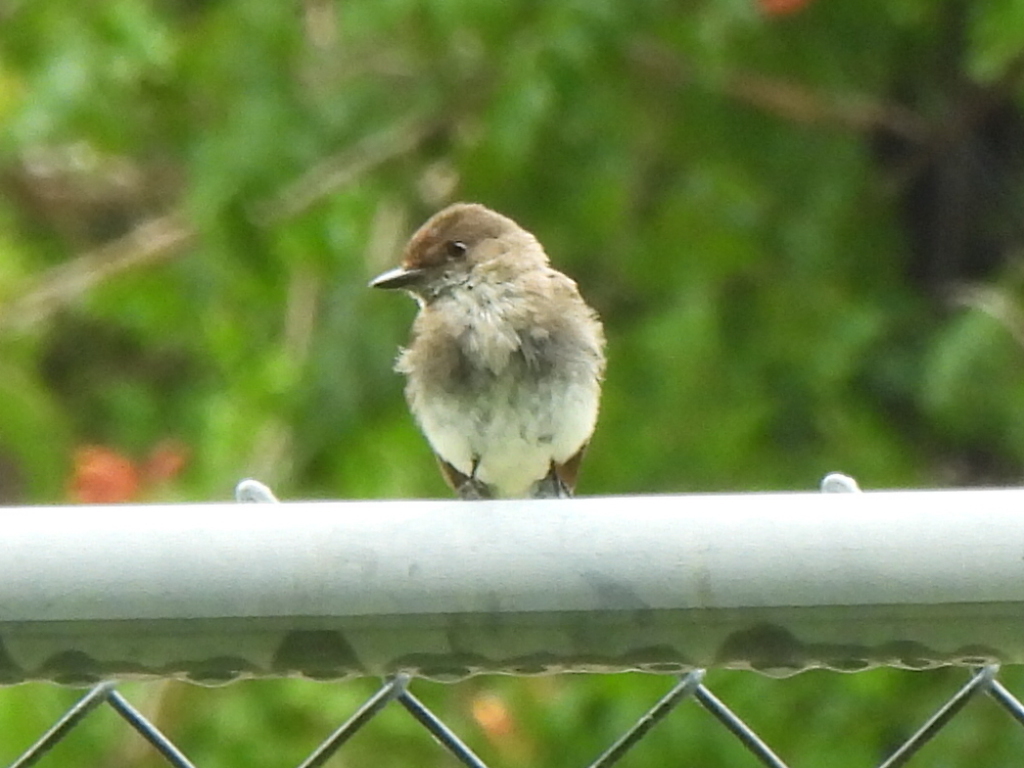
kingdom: Animalia
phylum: Chordata
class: Aves
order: Passeriformes
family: Tyrannidae
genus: Sayornis
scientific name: Sayornis phoebe
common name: Eastern phoebe
